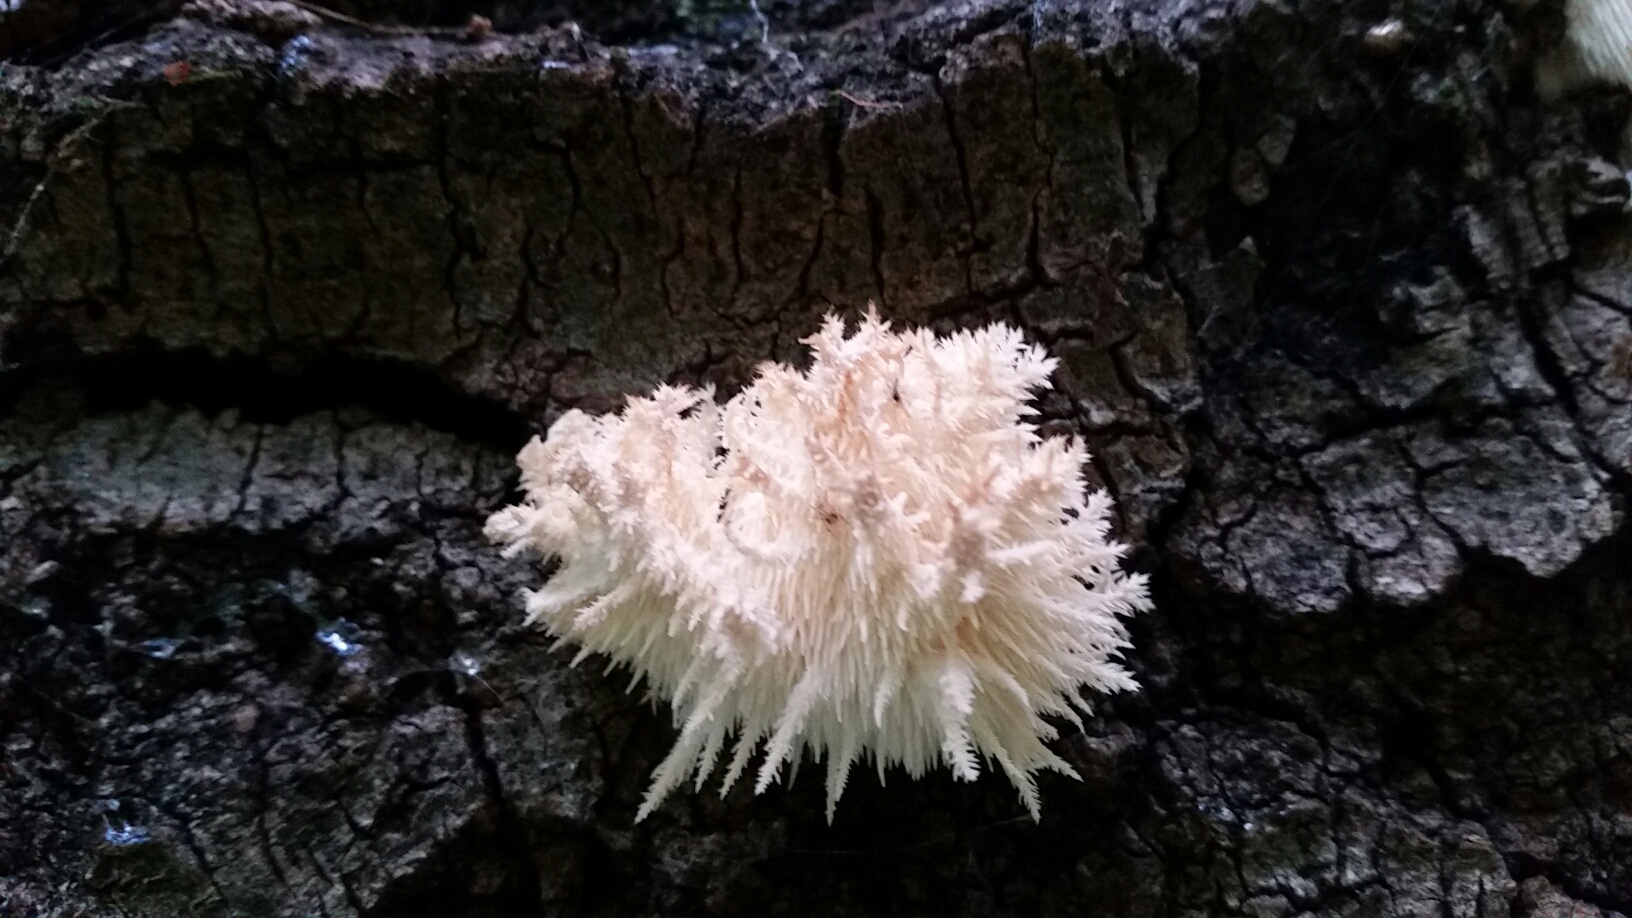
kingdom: Fungi
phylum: Basidiomycota
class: Agaricomycetes
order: Russulales
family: Hericiaceae
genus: Hericium
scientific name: Hericium coralloides
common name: Coral tooth
